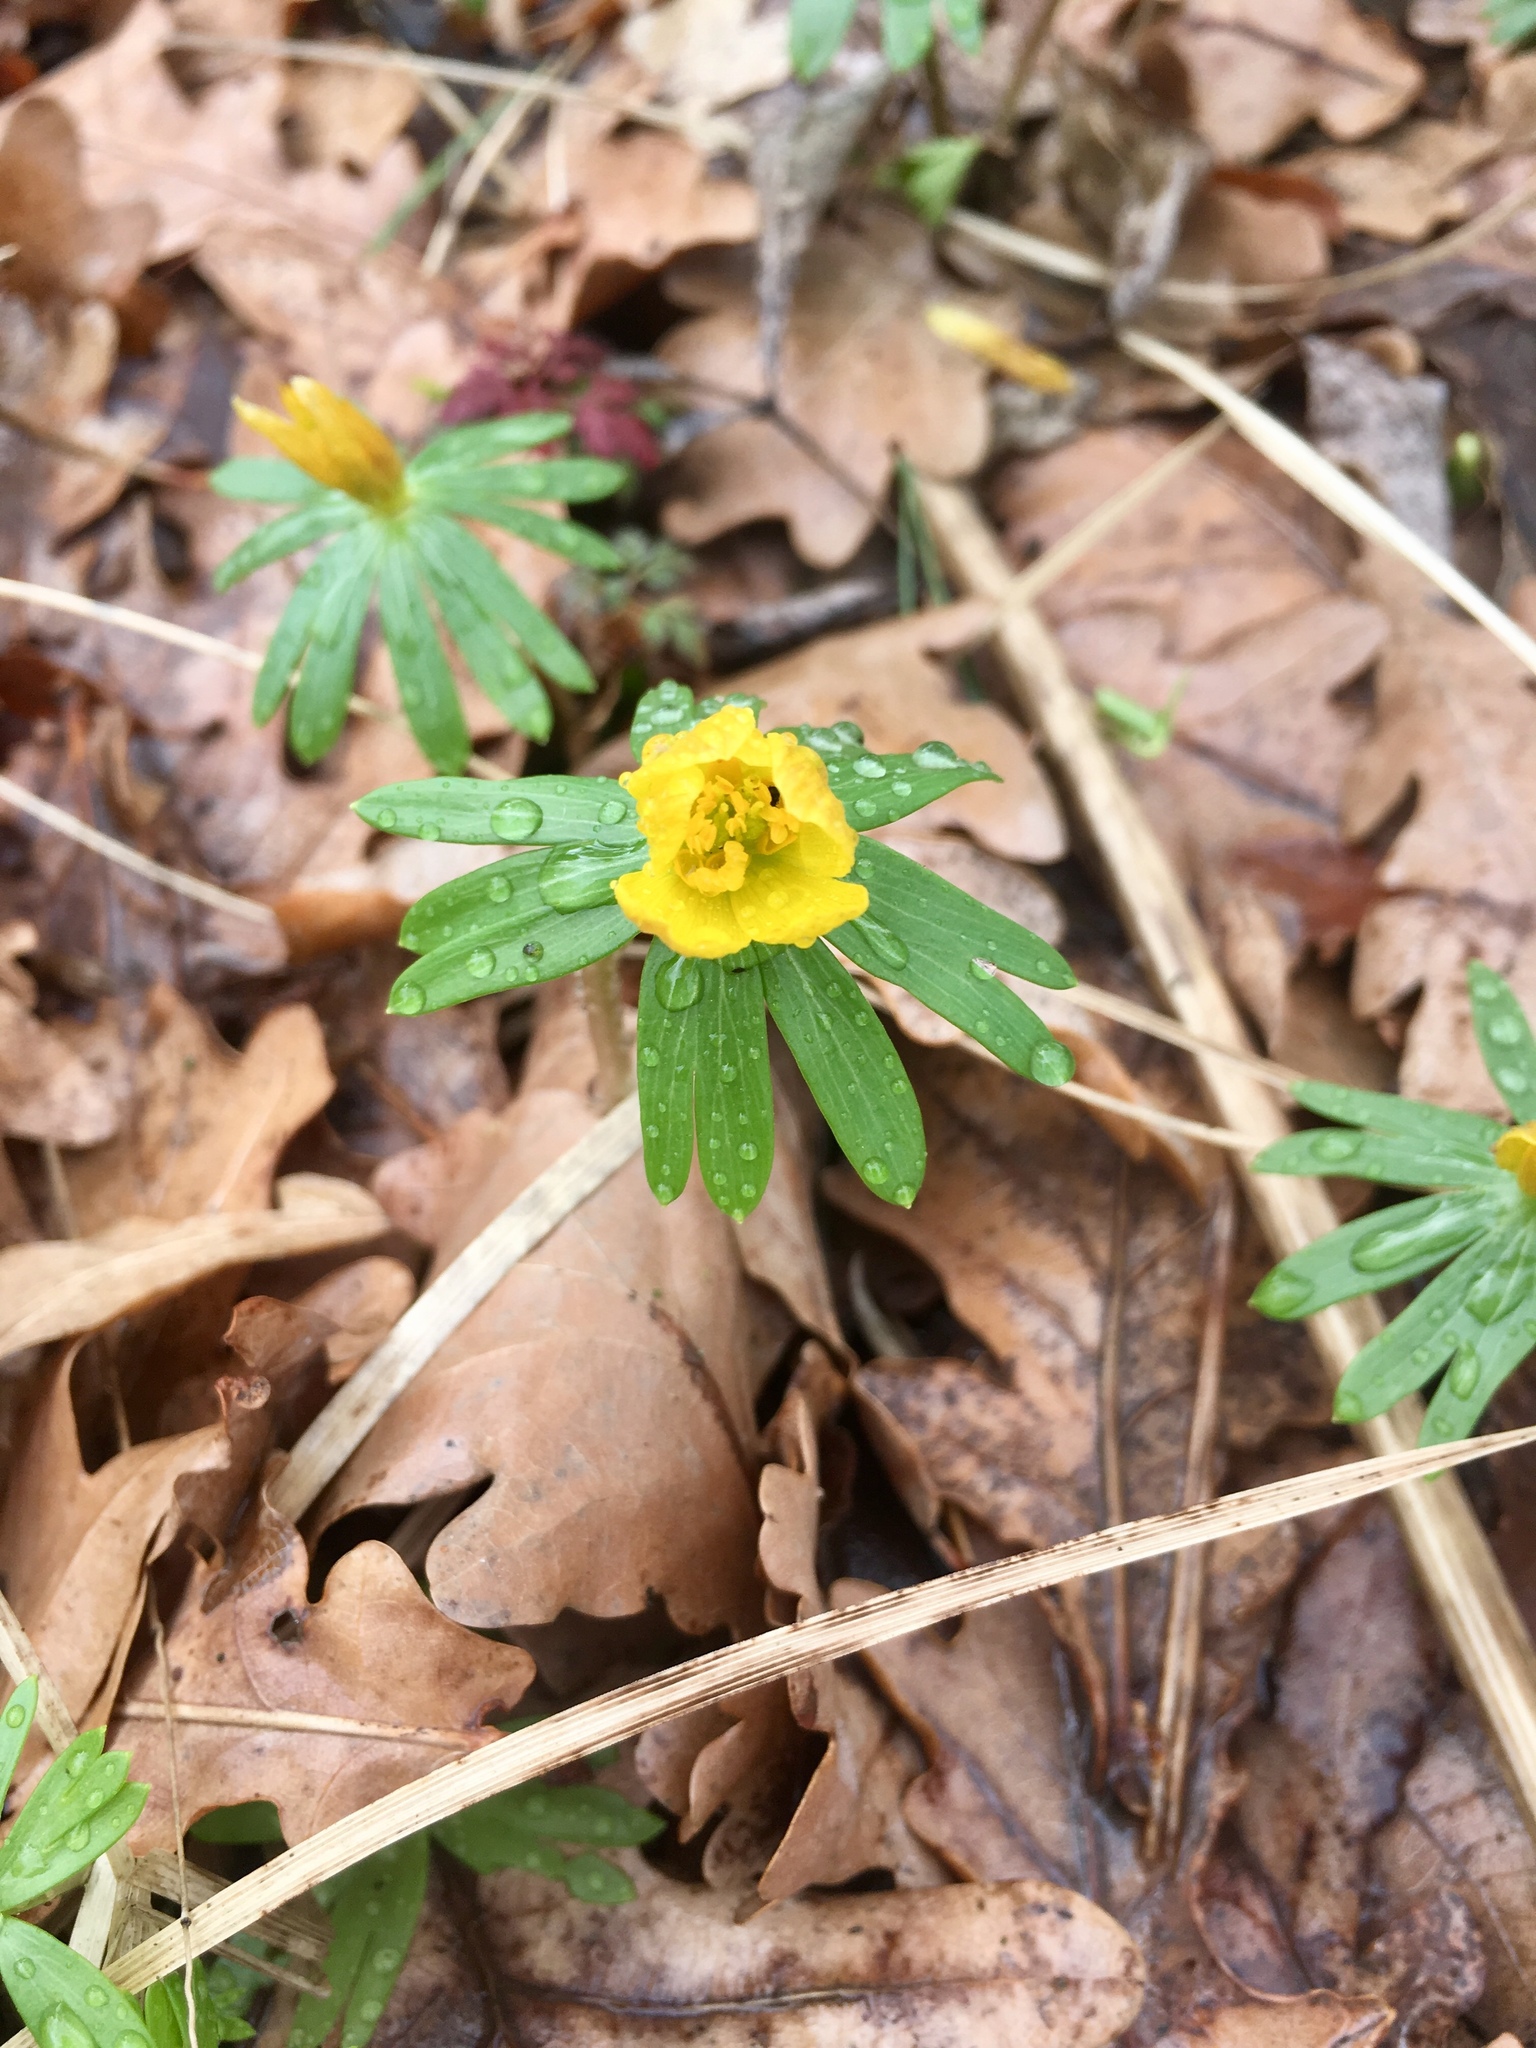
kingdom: Plantae
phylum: Tracheophyta
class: Magnoliopsida
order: Ranunculales
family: Ranunculaceae
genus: Eranthis
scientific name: Eranthis hyemalis
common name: Winter aconite
